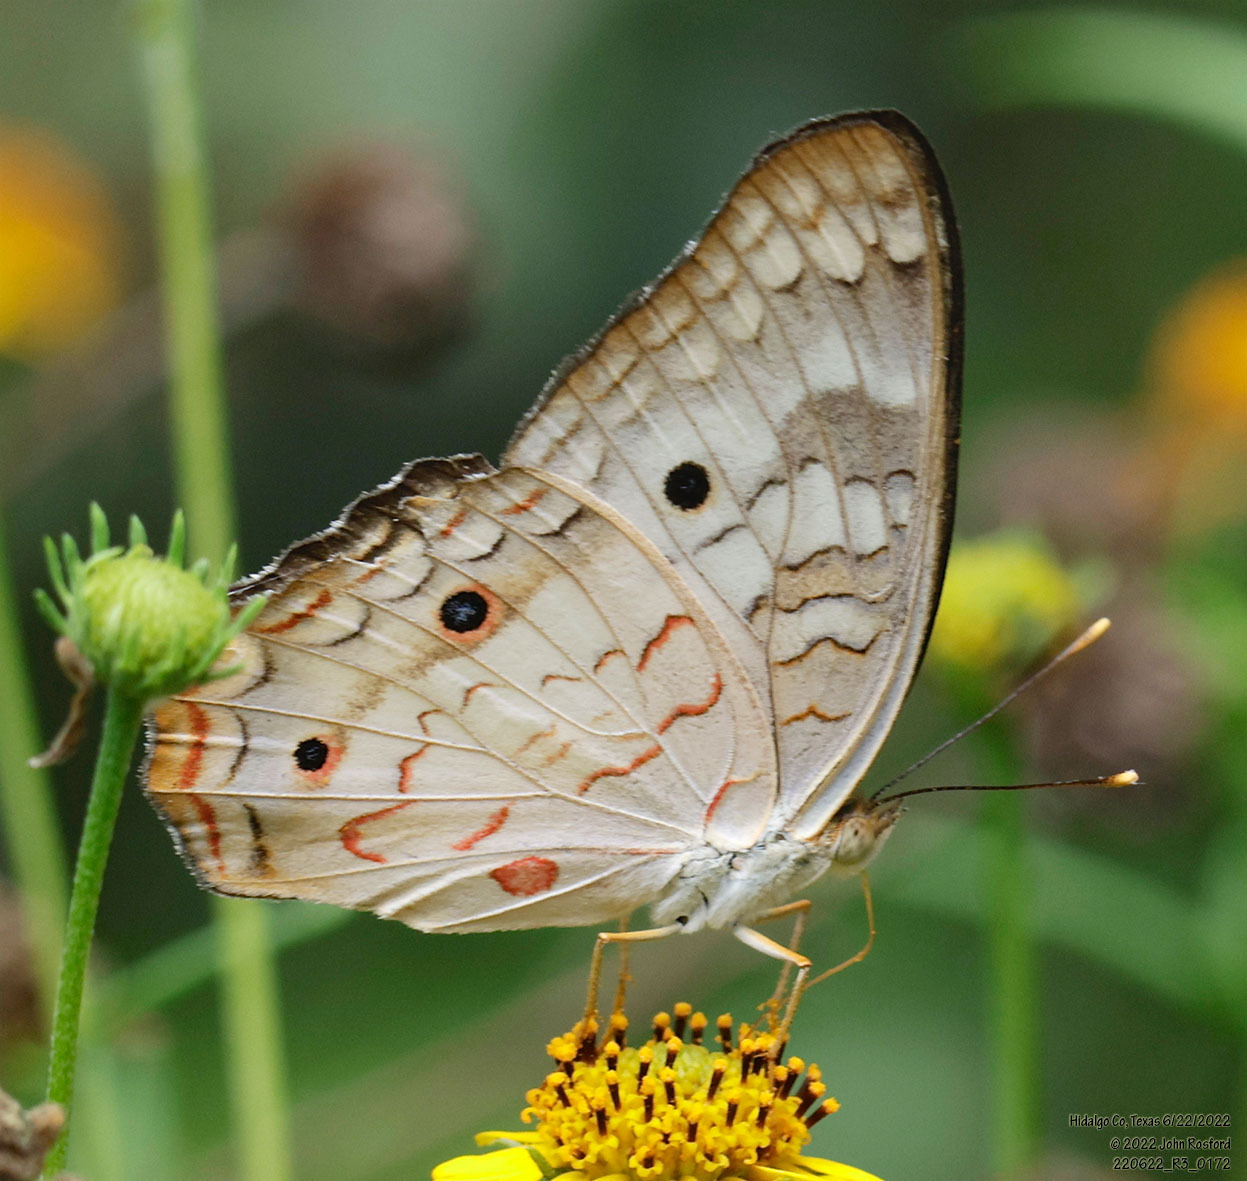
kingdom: Animalia
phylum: Arthropoda
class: Insecta
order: Lepidoptera
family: Nymphalidae
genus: Anartia
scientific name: Anartia jatrophae
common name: White peacock
